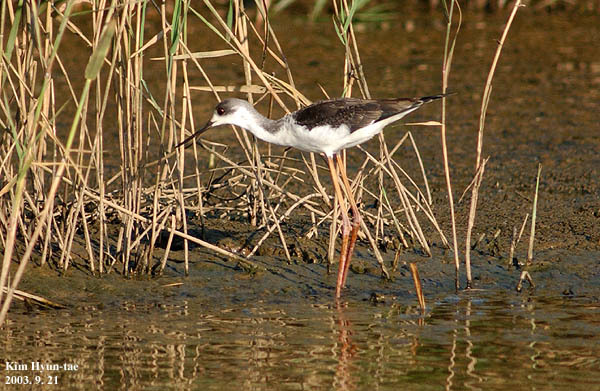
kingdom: Animalia
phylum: Chordata
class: Aves
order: Charadriiformes
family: Recurvirostridae
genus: Himantopus
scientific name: Himantopus himantopus
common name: Black-winged stilt
